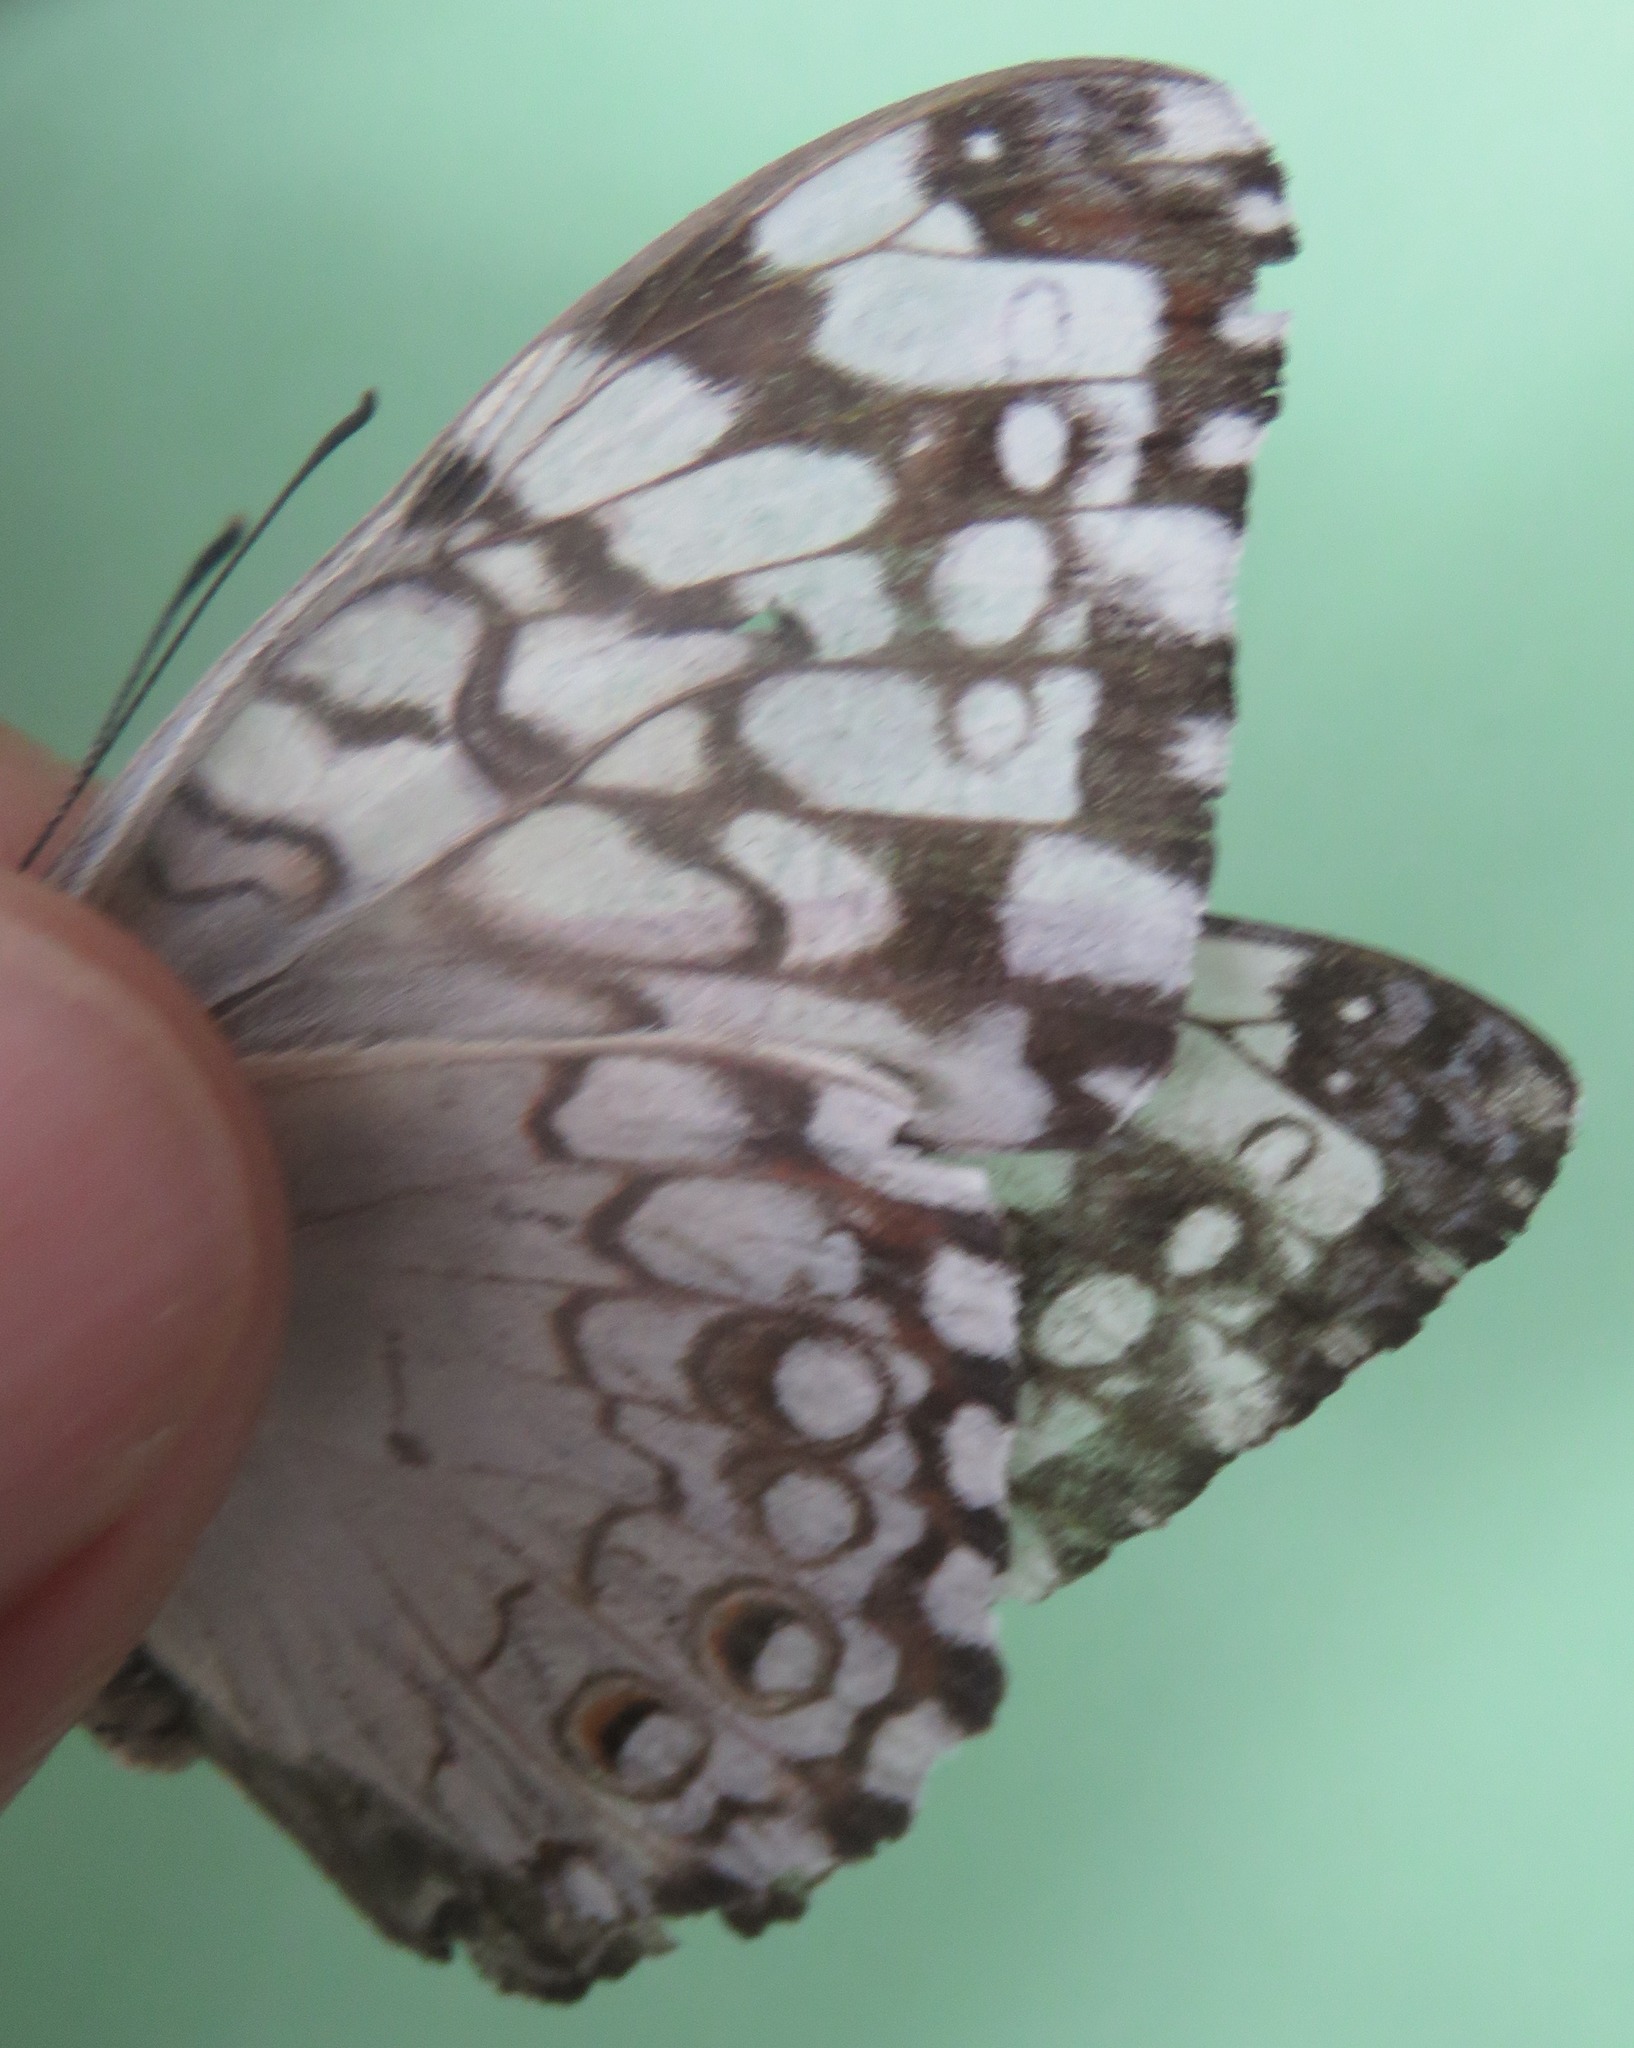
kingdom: Animalia
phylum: Arthropoda
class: Insecta
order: Lepidoptera
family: Nymphalidae
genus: Hamadryas
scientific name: Hamadryas februa
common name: Gray cracker
